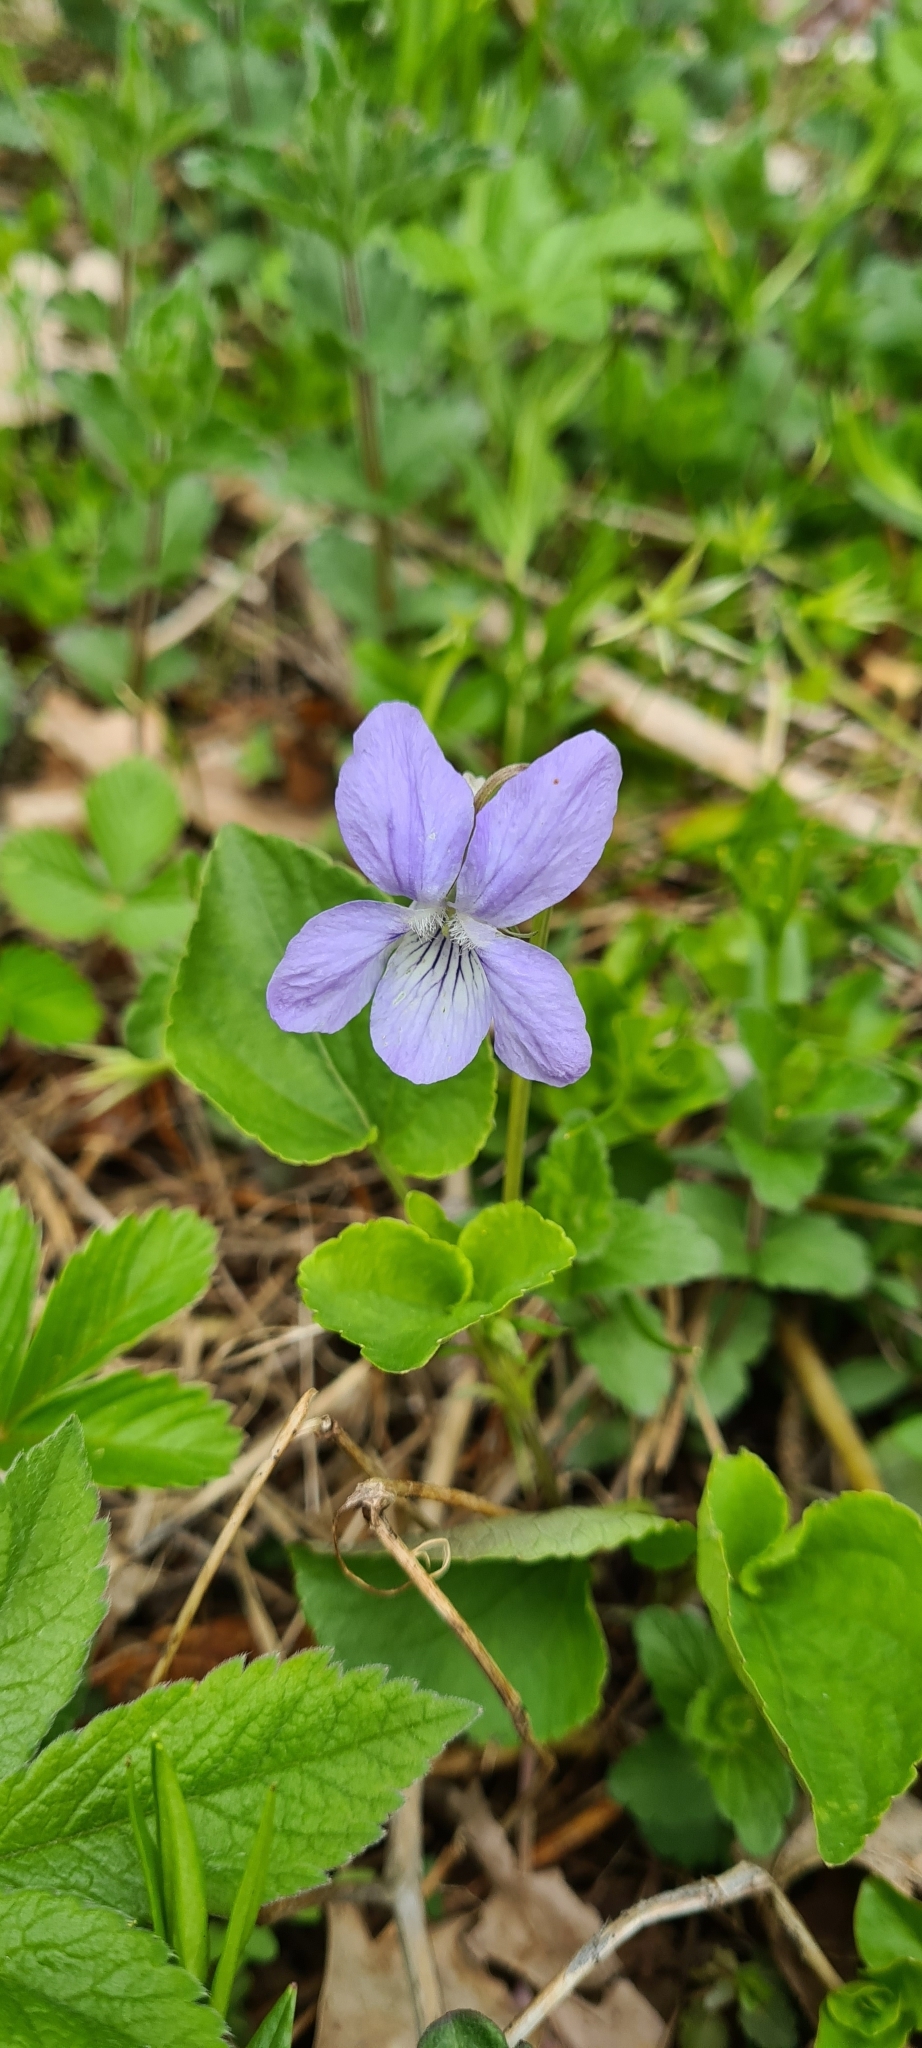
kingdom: Plantae
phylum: Tracheophyta
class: Magnoliopsida
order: Malpighiales
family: Violaceae
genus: Viola
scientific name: Viola riviniana
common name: Common dog-violet
